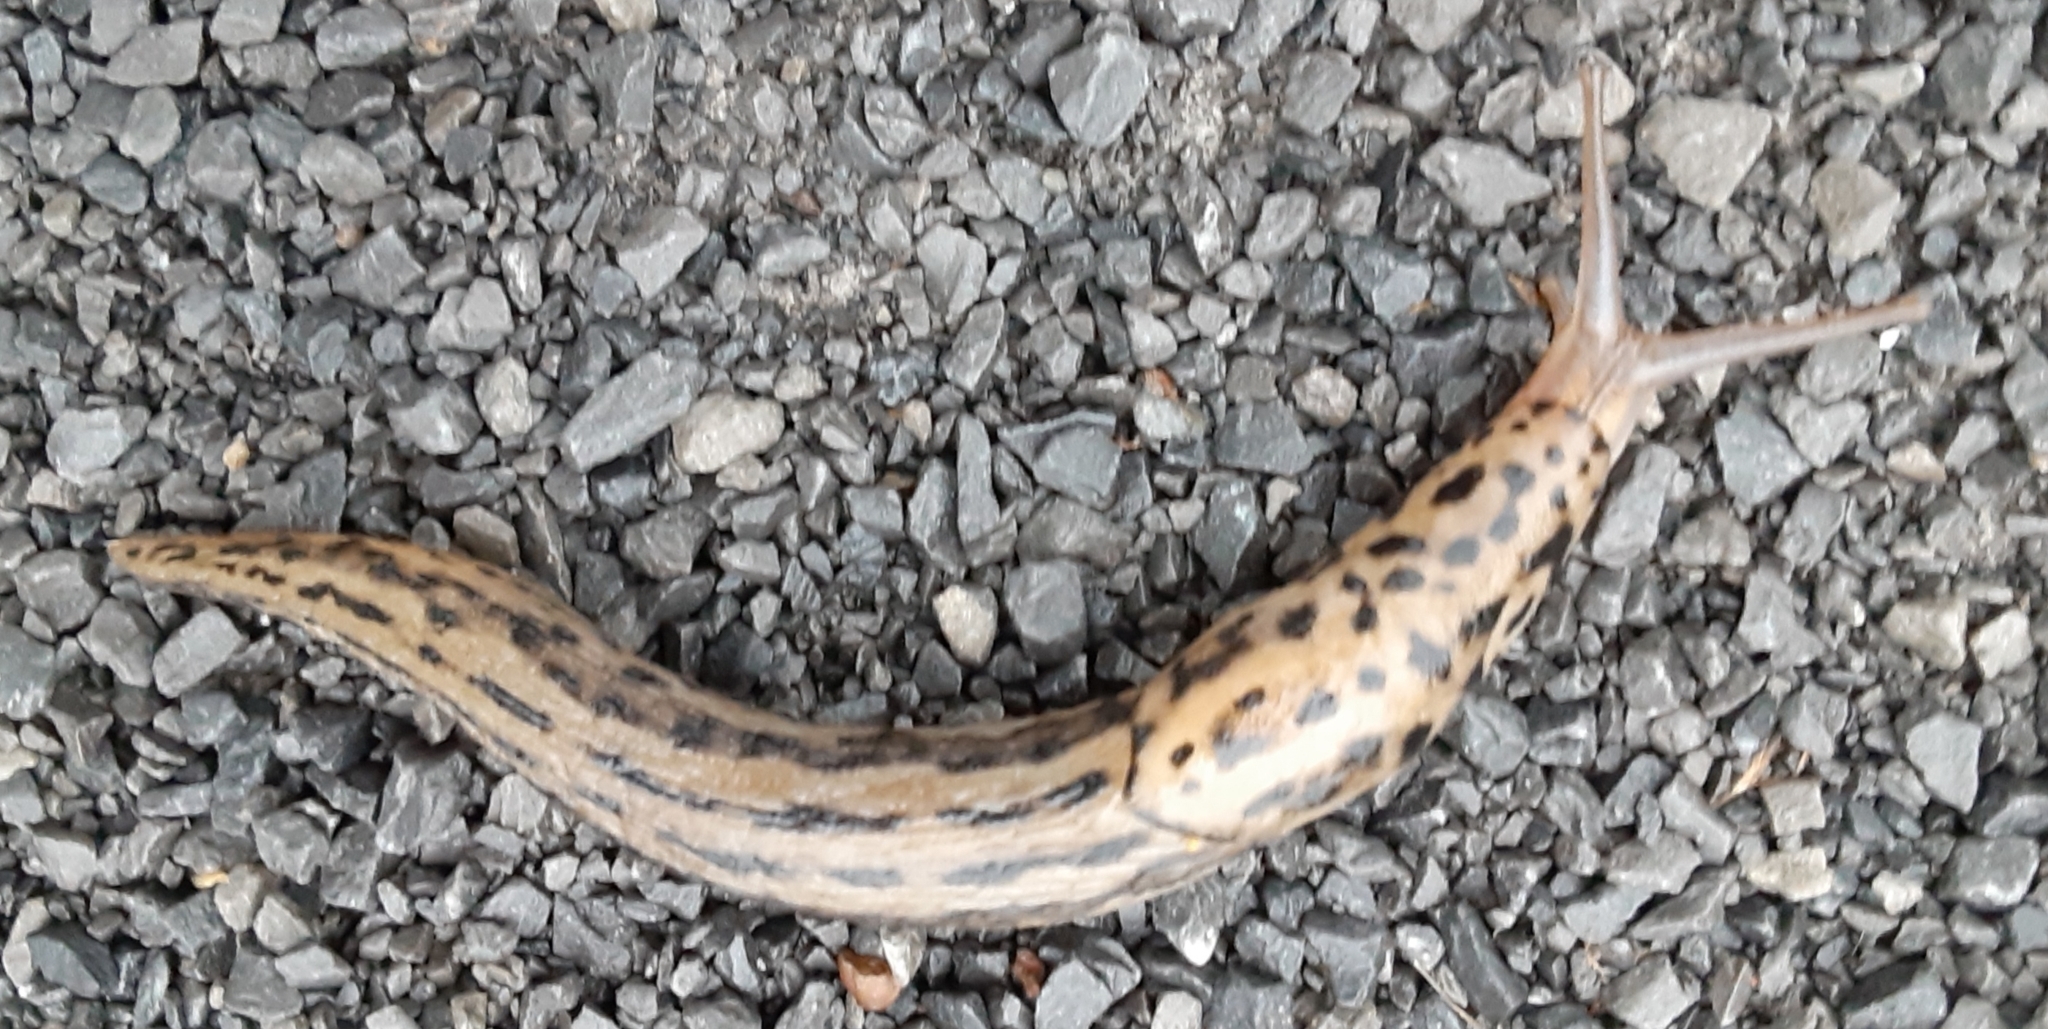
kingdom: Animalia
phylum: Mollusca
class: Gastropoda
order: Stylommatophora
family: Limacidae
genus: Limax
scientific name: Limax maximus
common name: Great grey slug
